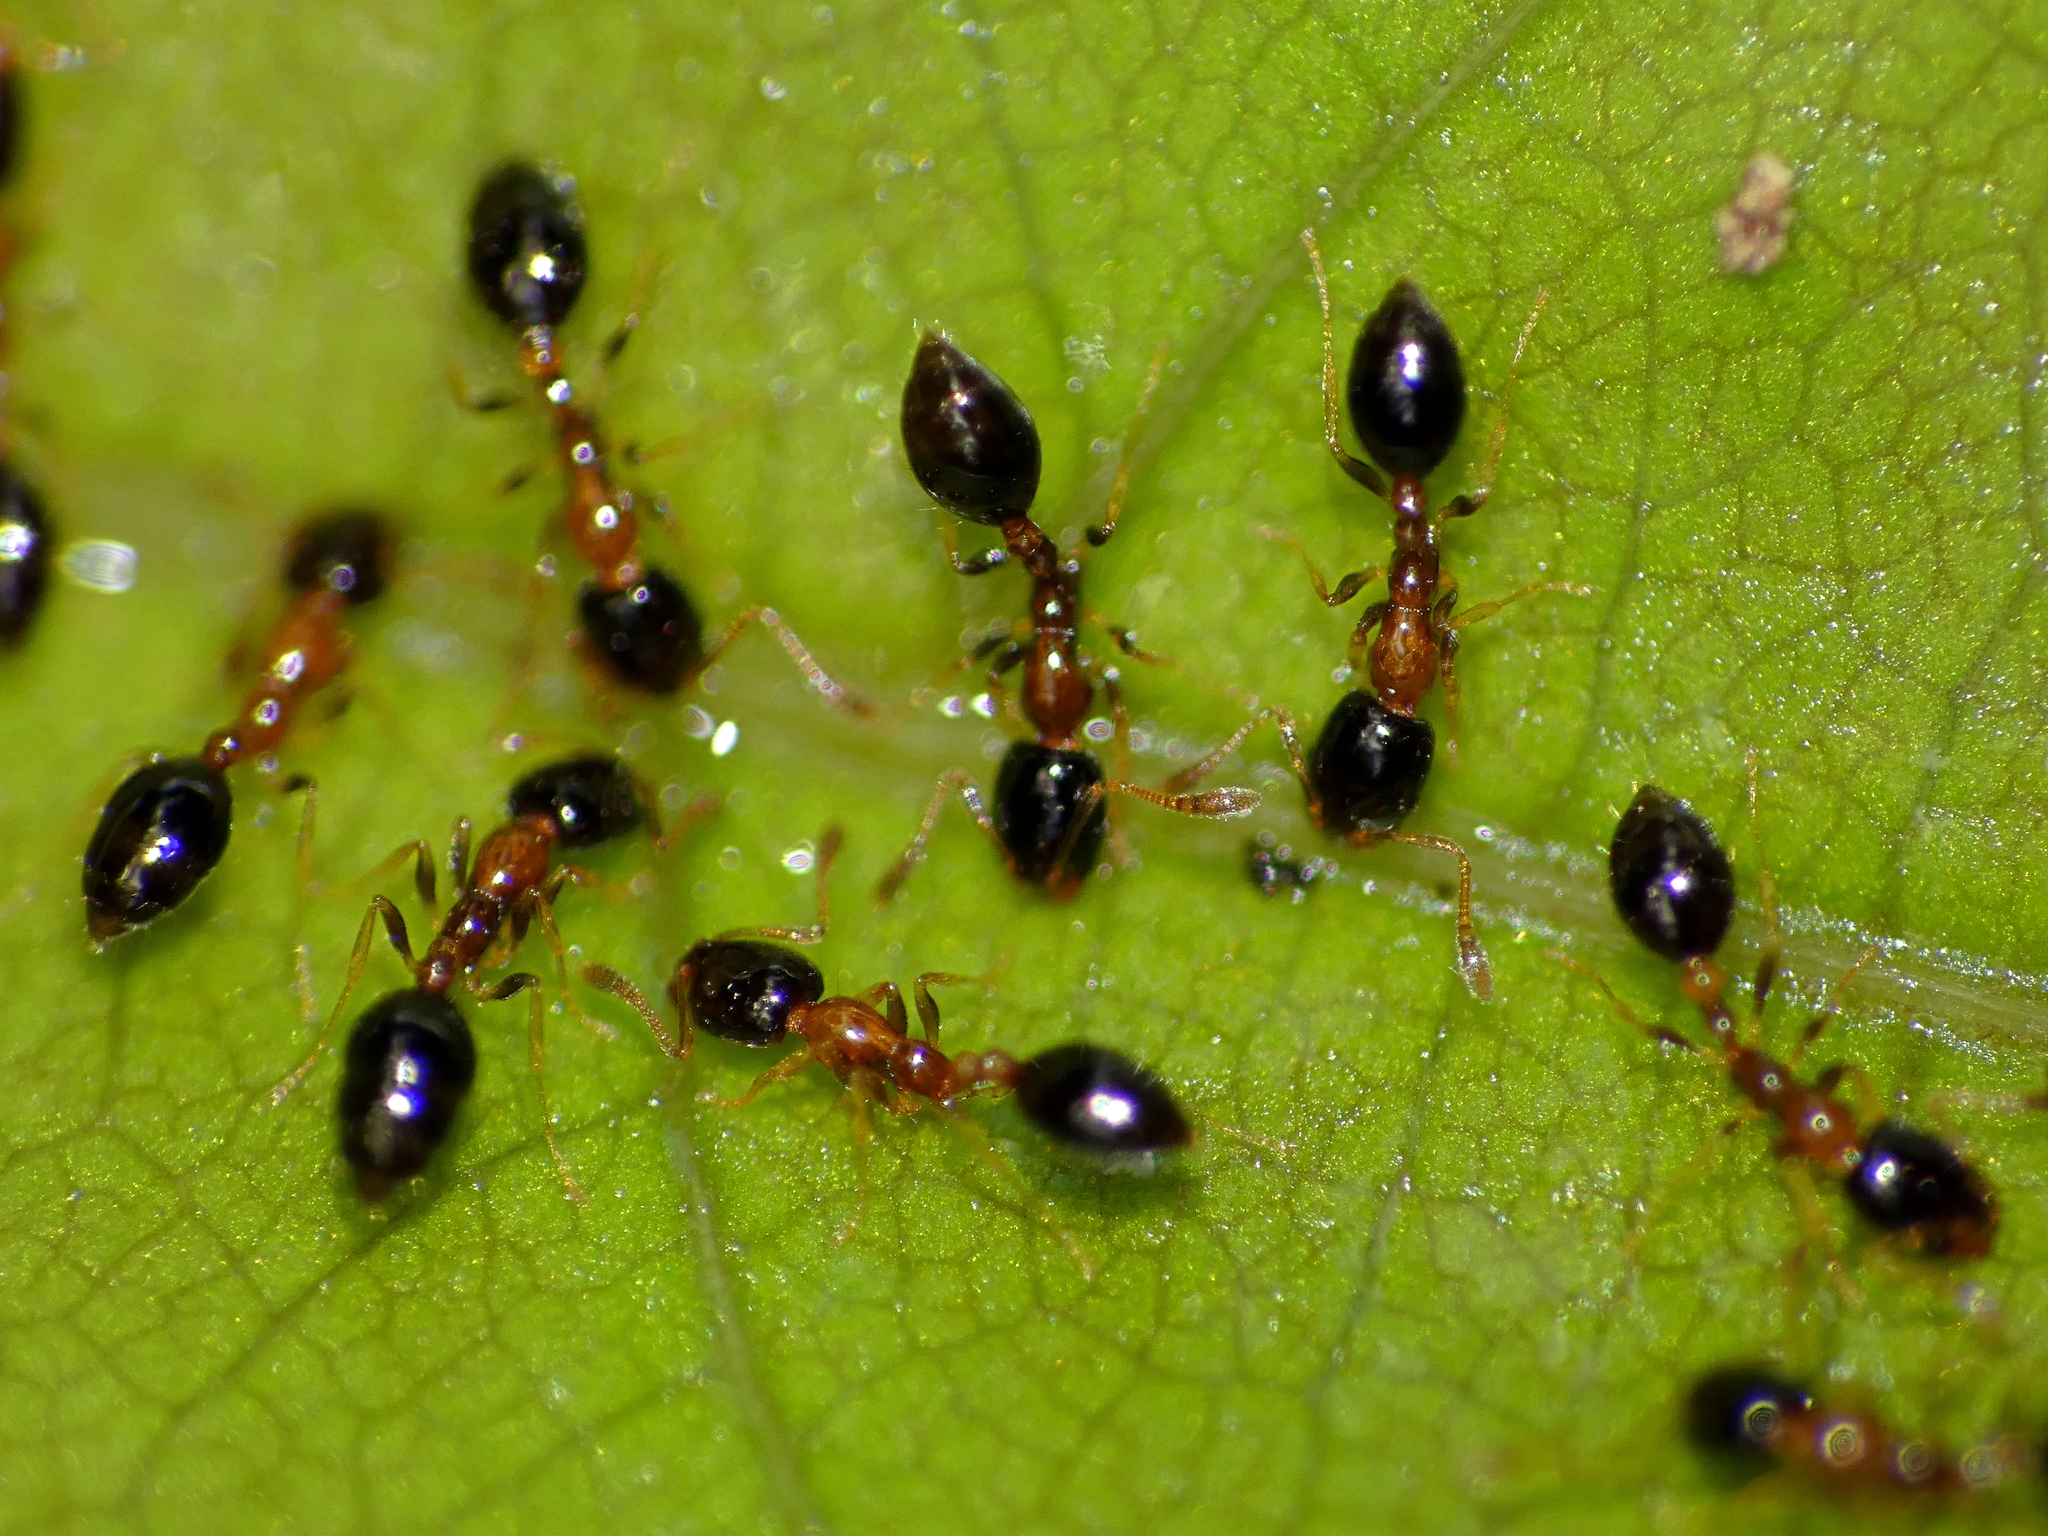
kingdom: Animalia
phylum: Arthropoda
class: Insecta
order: Hymenoptera
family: Formicidae
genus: Monomorium
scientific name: Monomorium floricola
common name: Bicolored trailing ant
